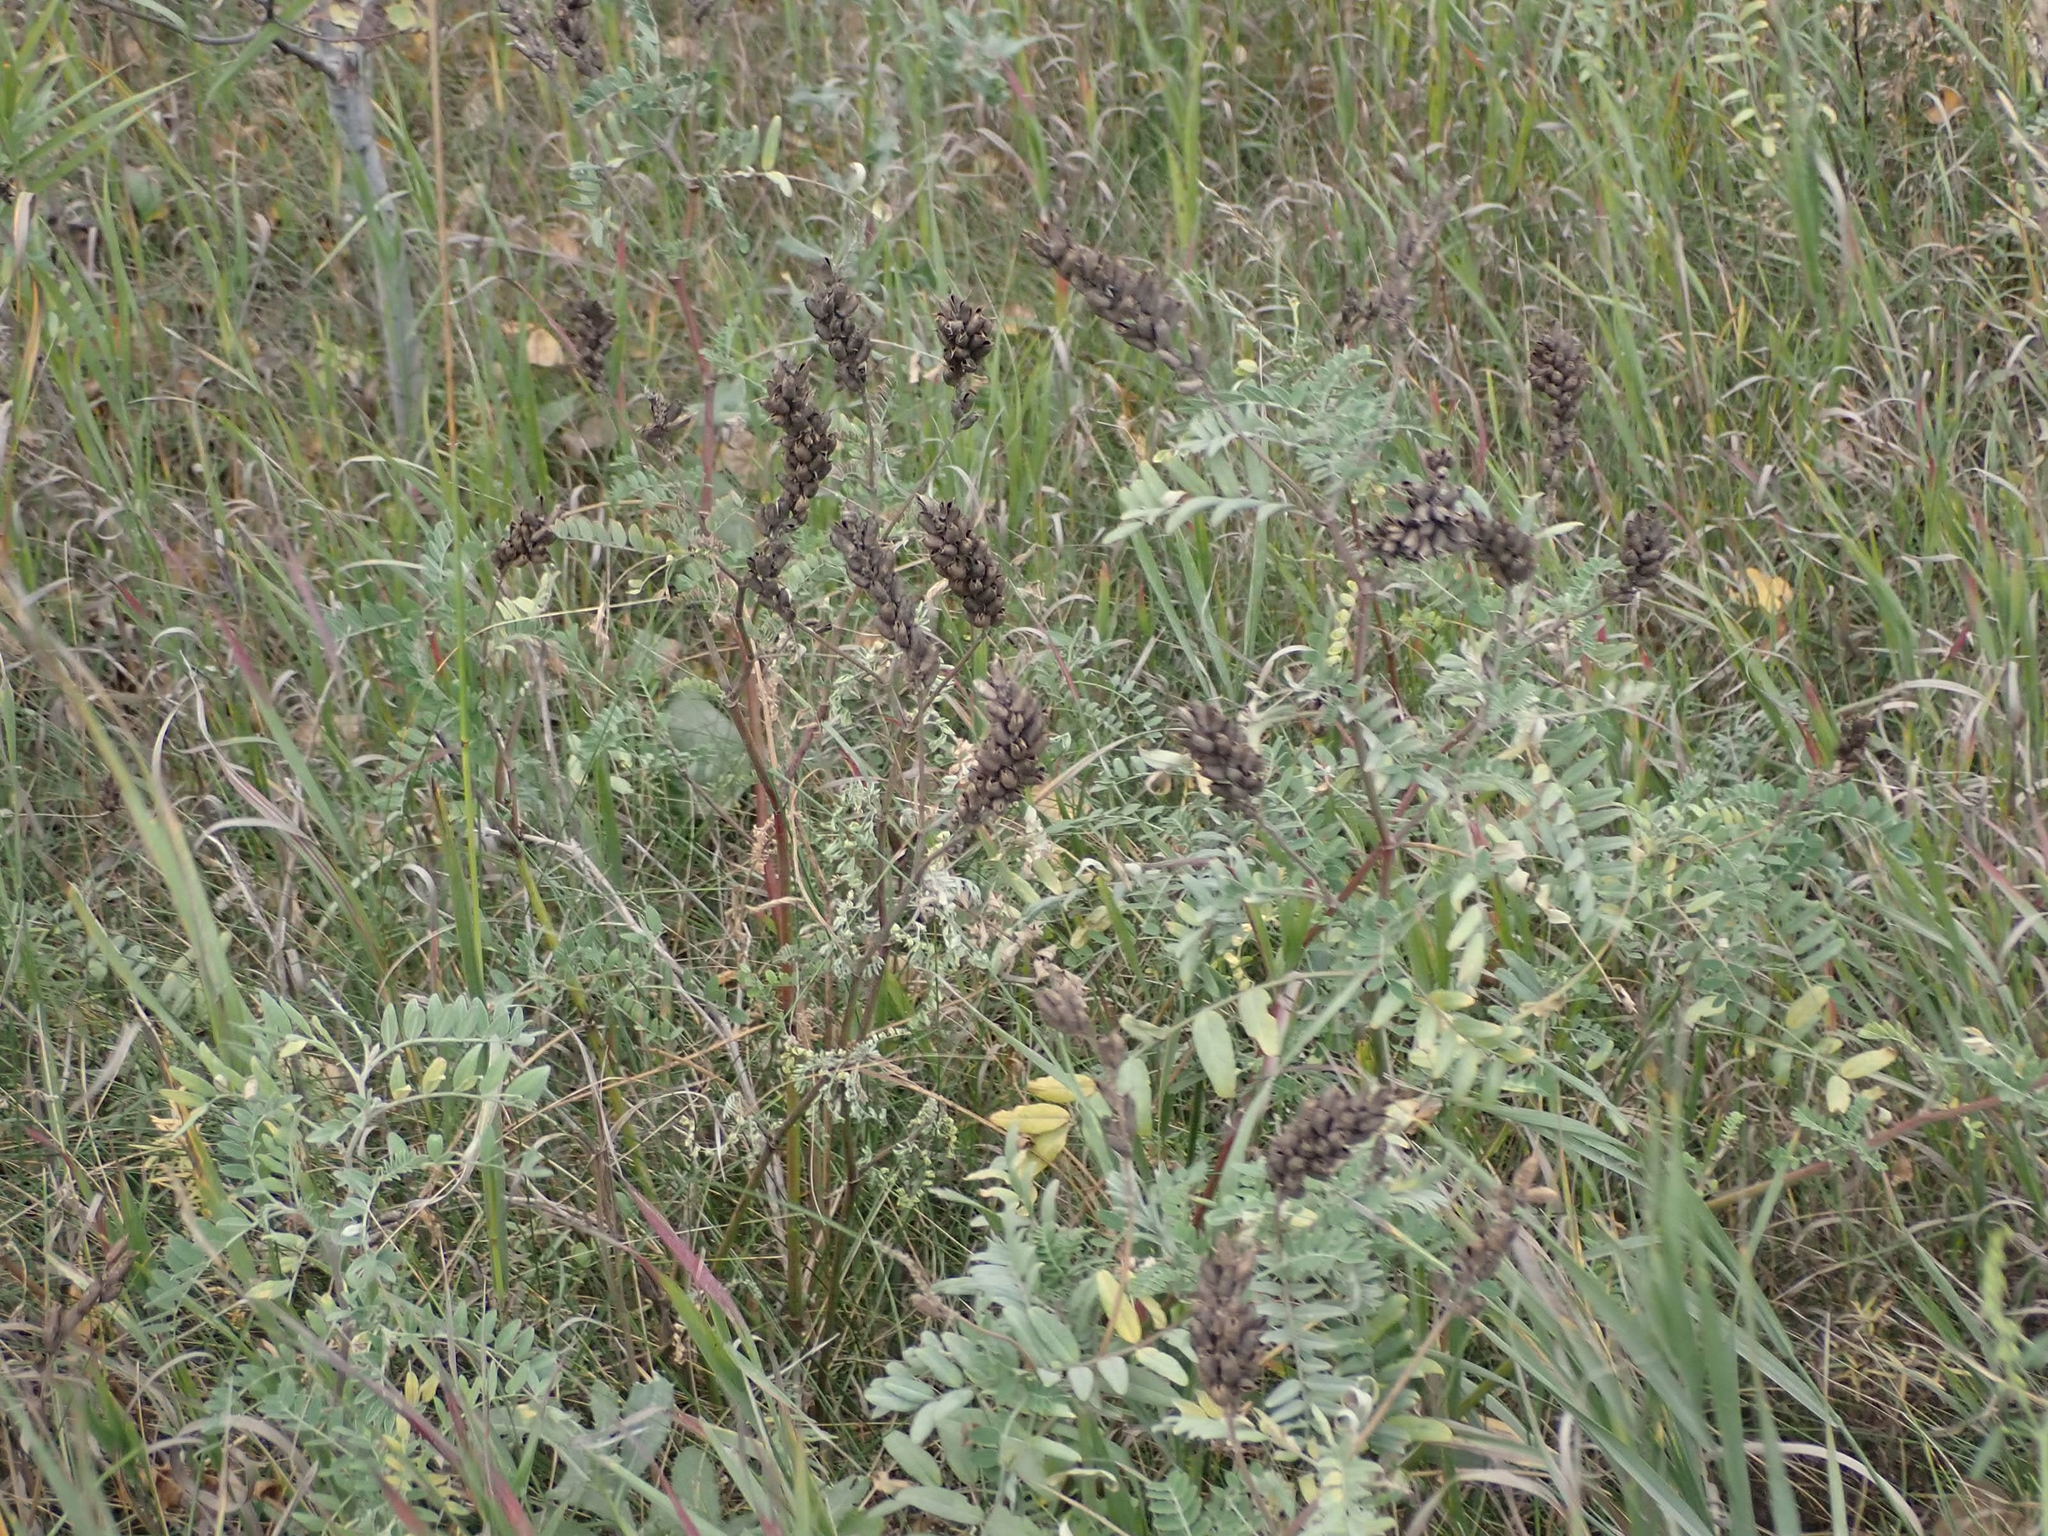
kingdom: Plantae
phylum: Tracheophyta
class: Magnoliopsida
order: Fabales
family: Fabaceae
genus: Astragalus
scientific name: Astragalus canadensis
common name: Canada milk-vetch
